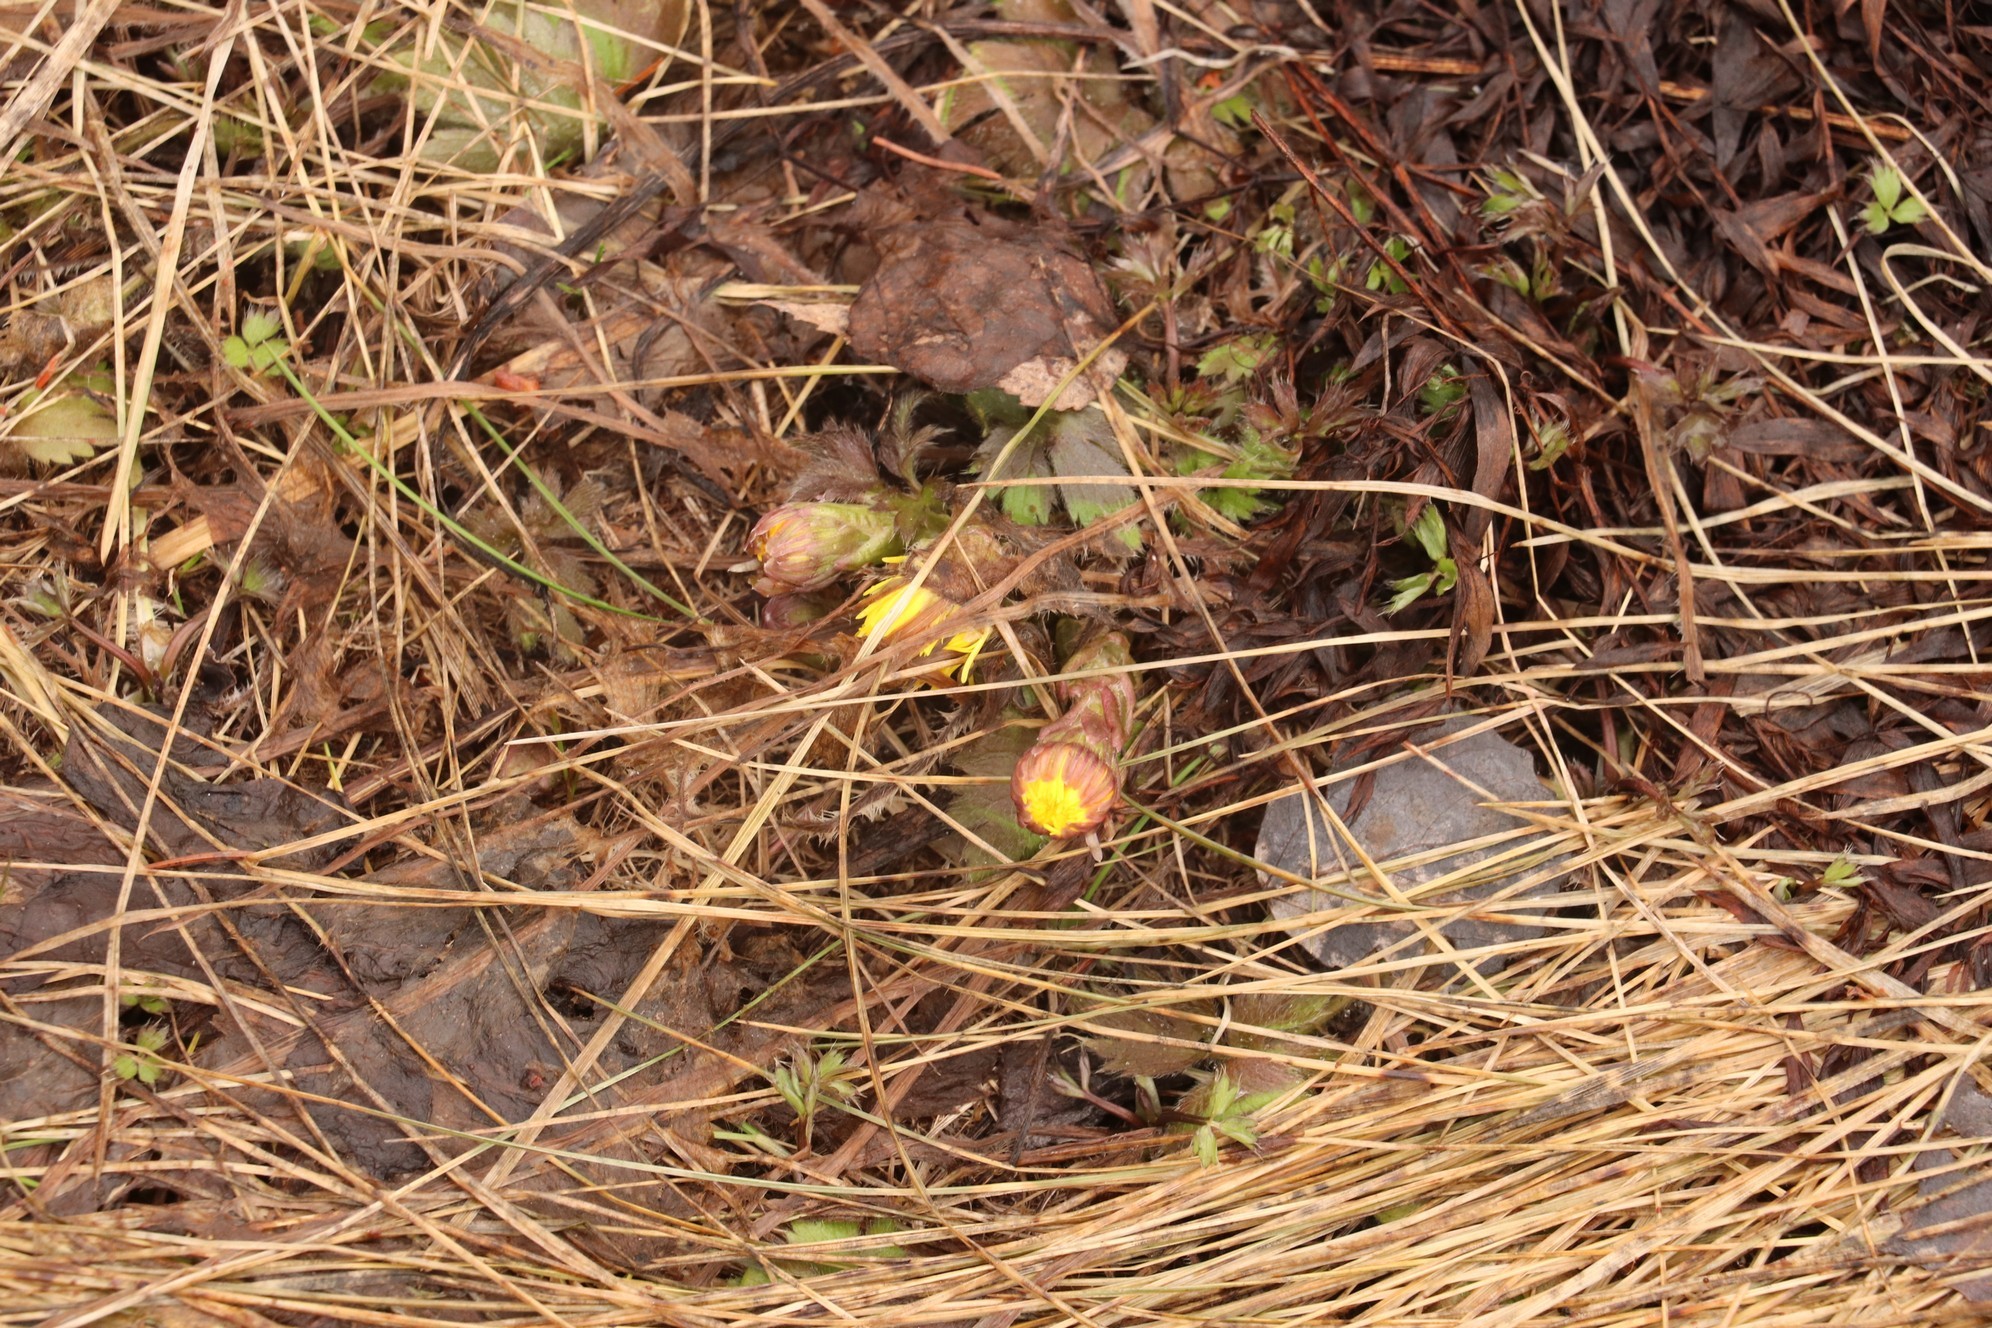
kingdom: Plantae
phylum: Tracheophyta
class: Magnoliopsida
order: Asterales
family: Asteraceae
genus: Tussilago
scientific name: Tussilago farfara
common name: Coltsfoot
